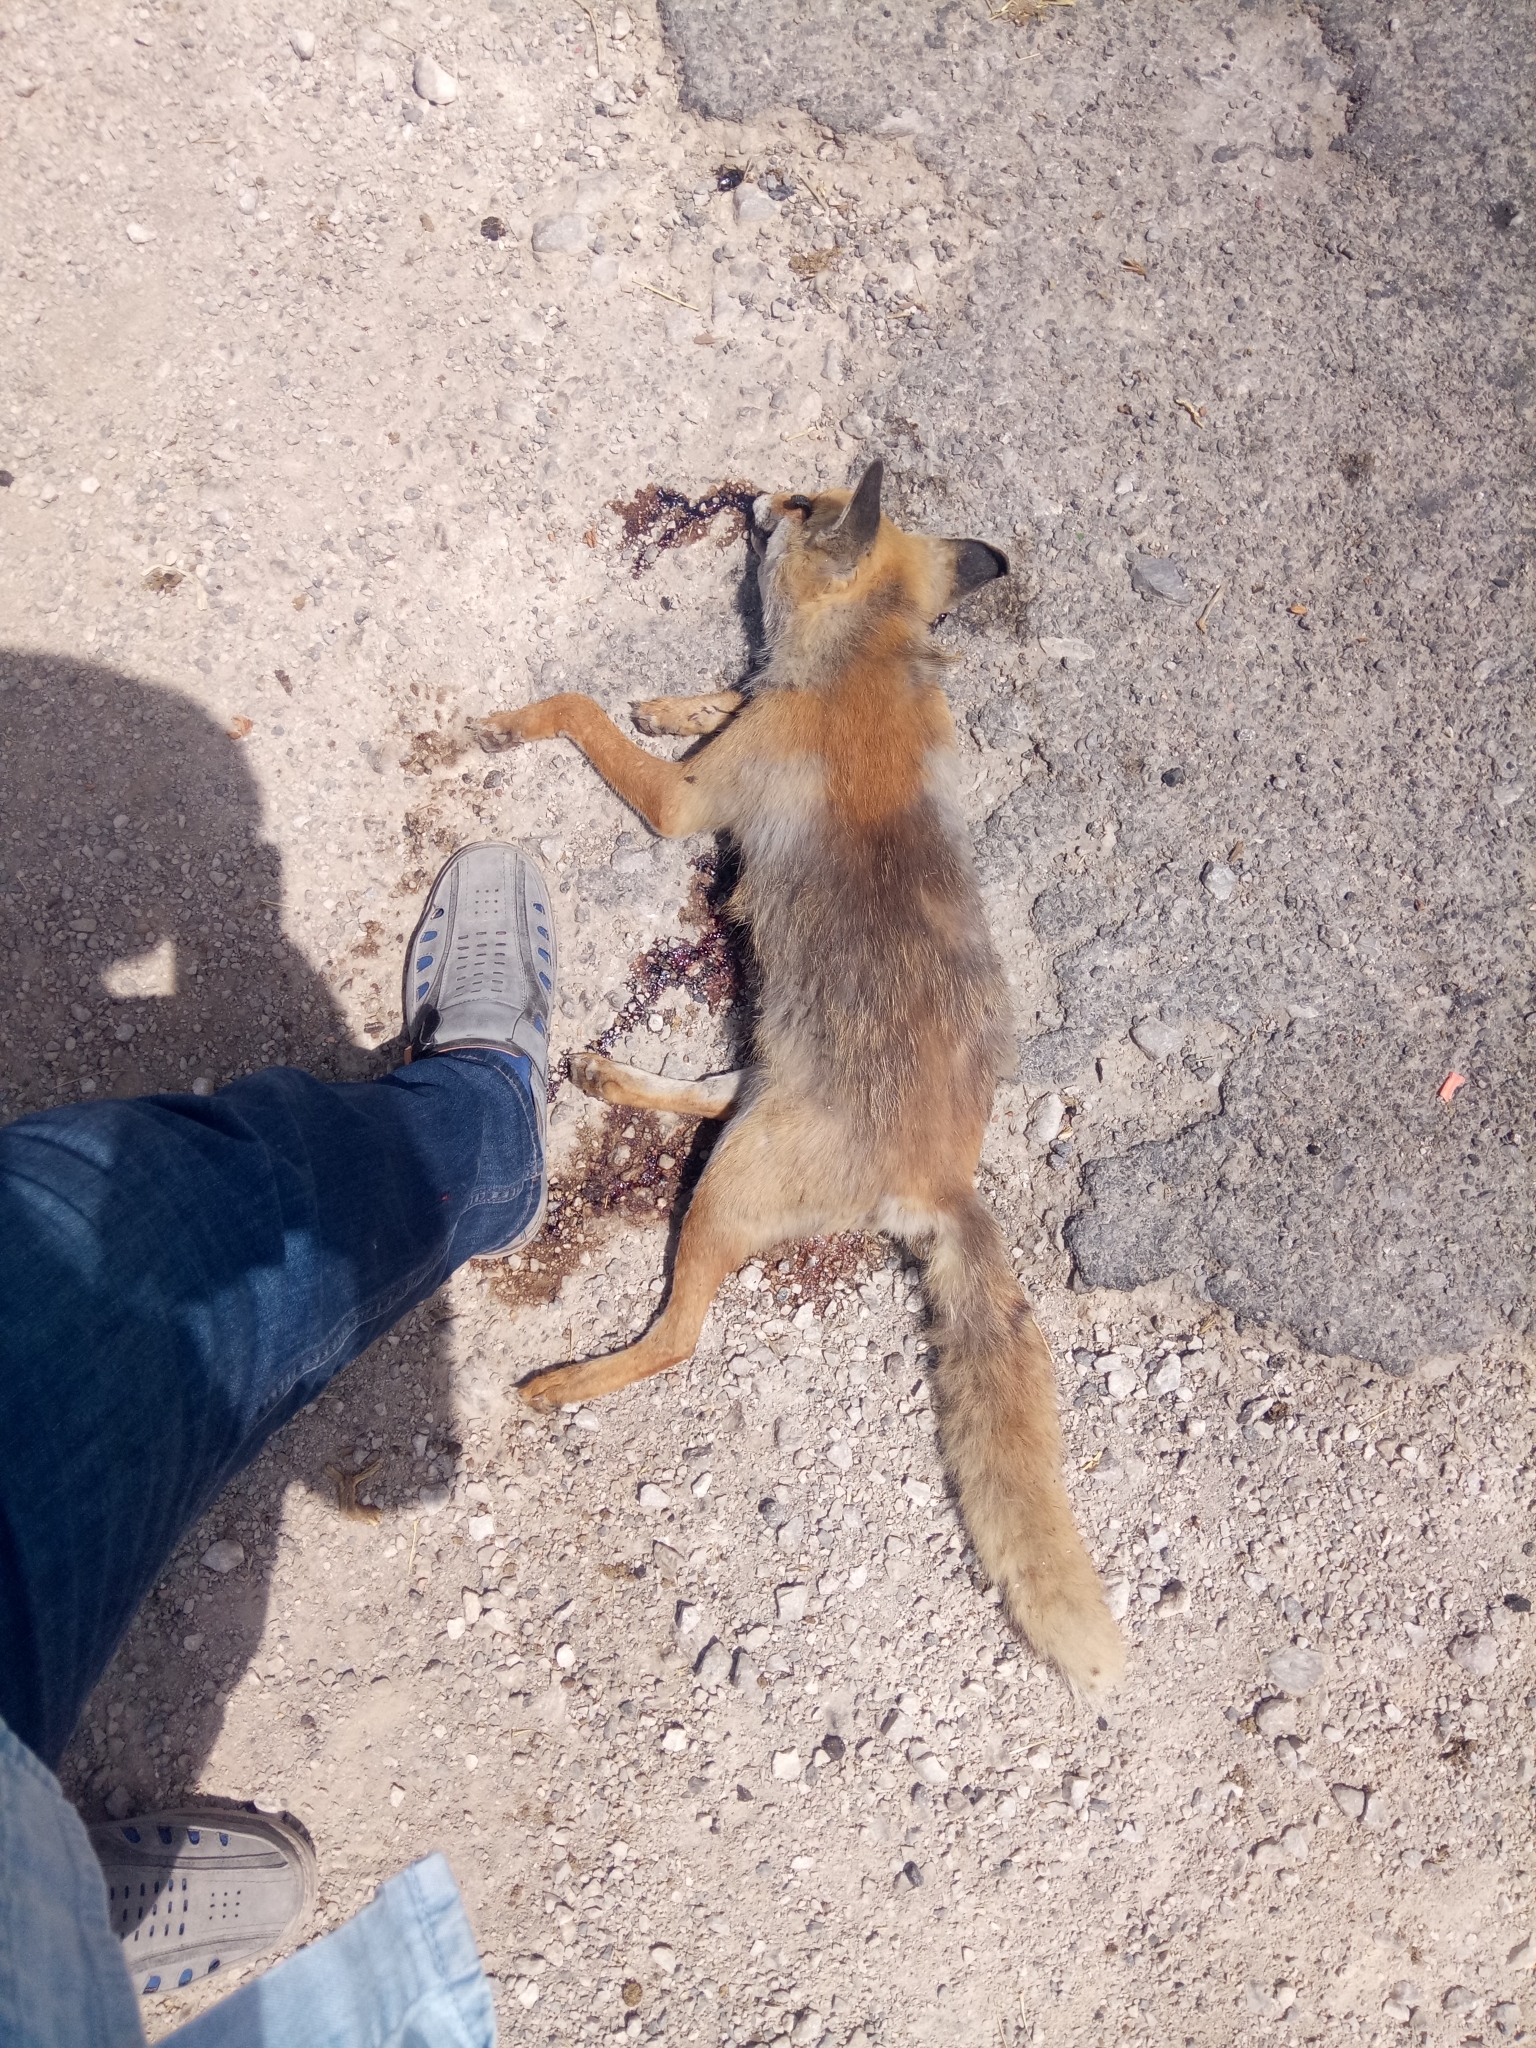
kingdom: Animalia
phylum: Chordata
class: Mammalia
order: Carnivora
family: Canidae
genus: Vulpes
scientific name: Vulpes vulpes
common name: Red fox
